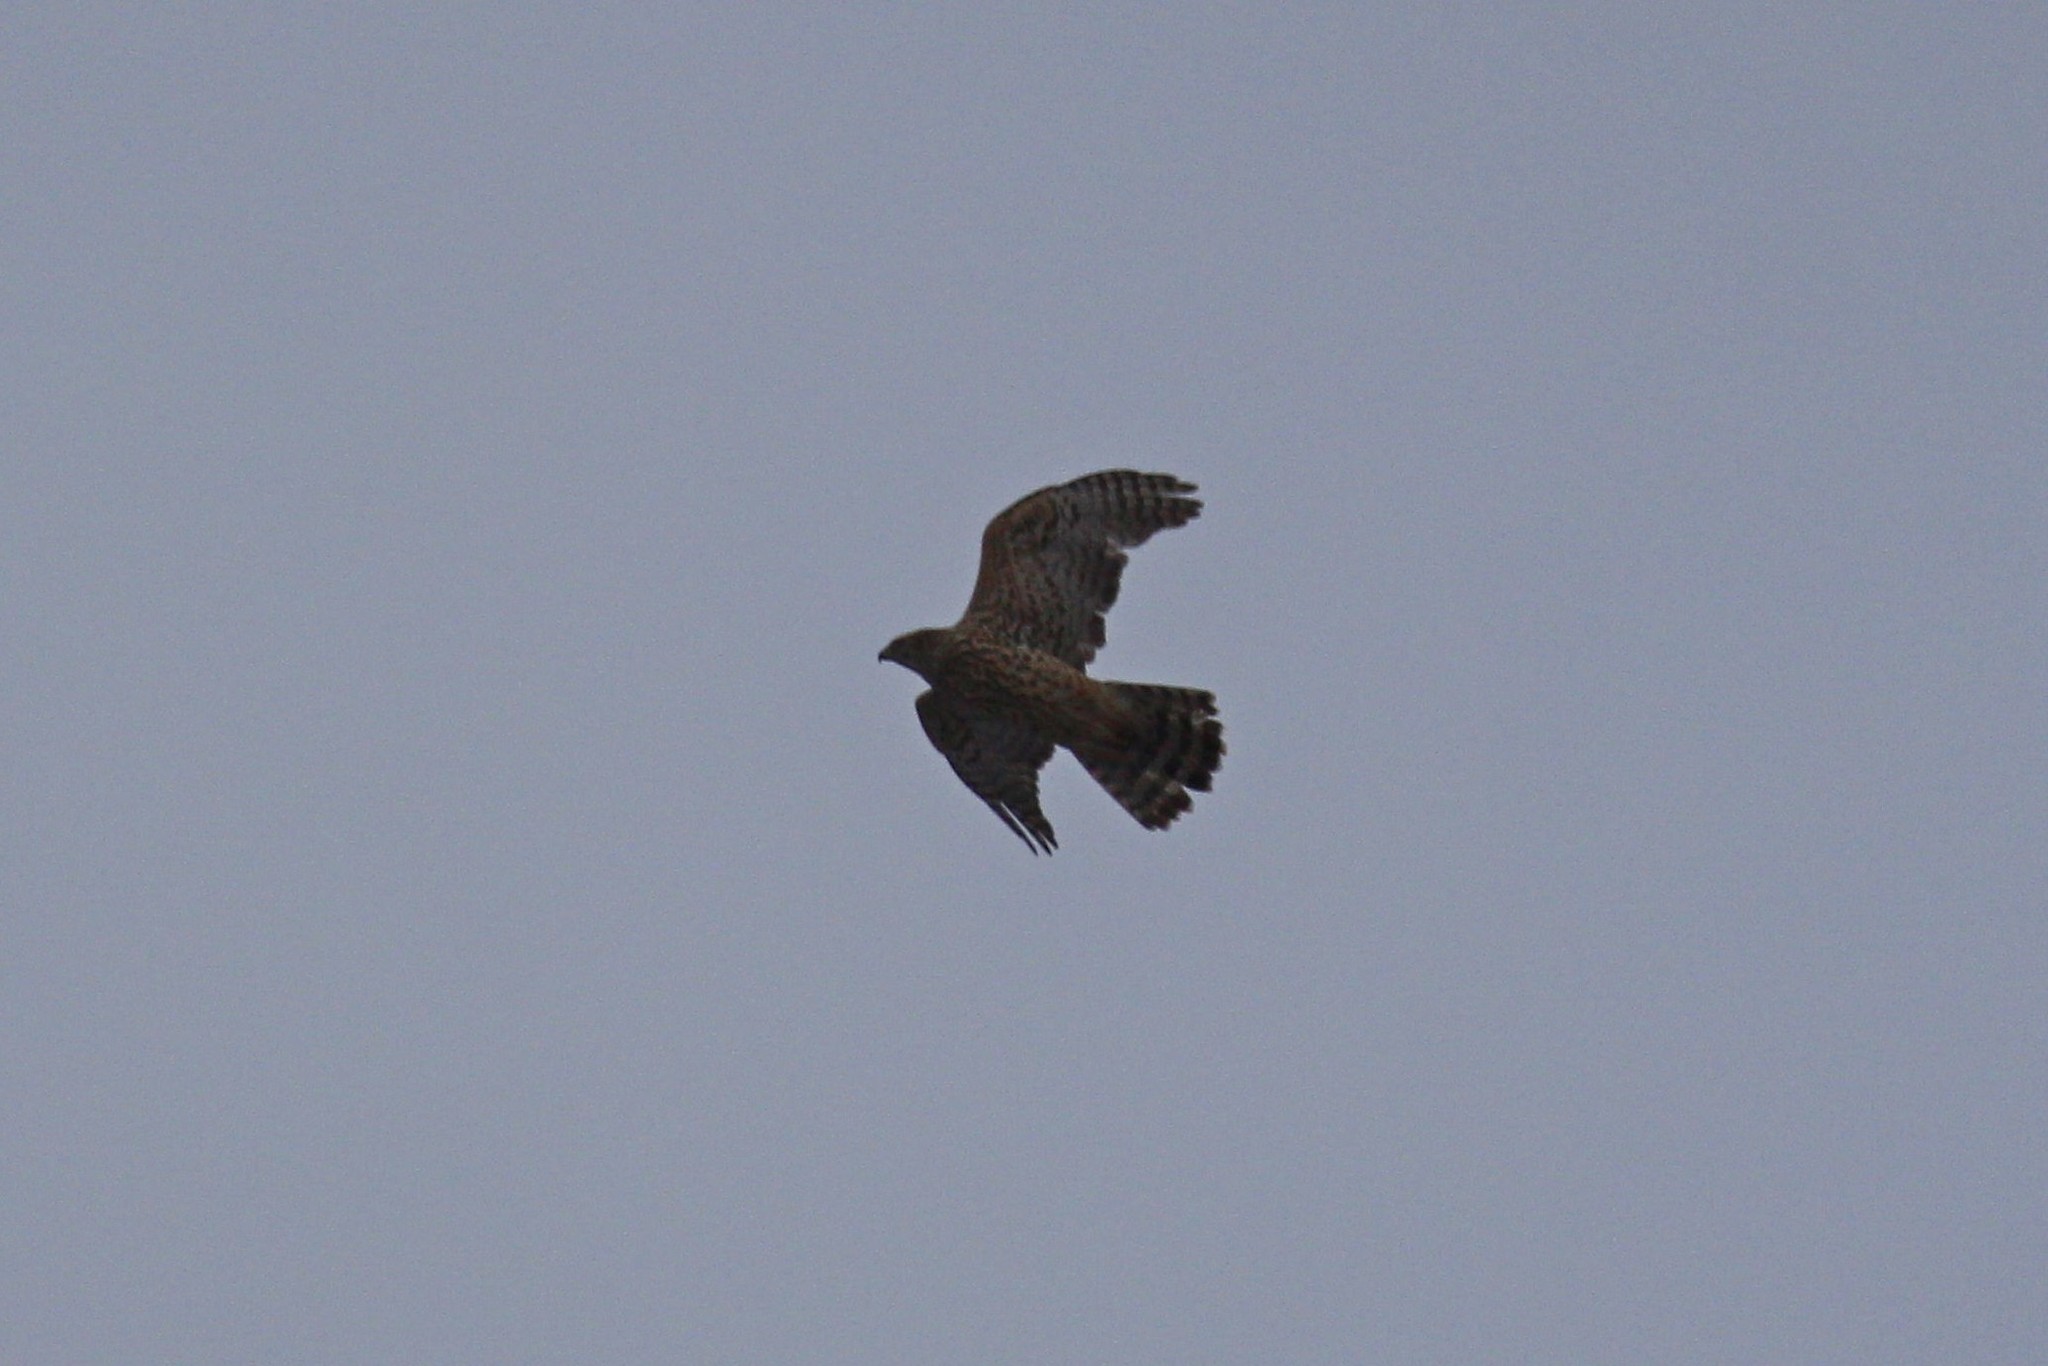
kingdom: Animalia
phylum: Chordata
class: Aves
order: Accipitriformes
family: Accipitridae
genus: Accipiter
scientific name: Accipiter gentilis
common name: Northern goshawk
